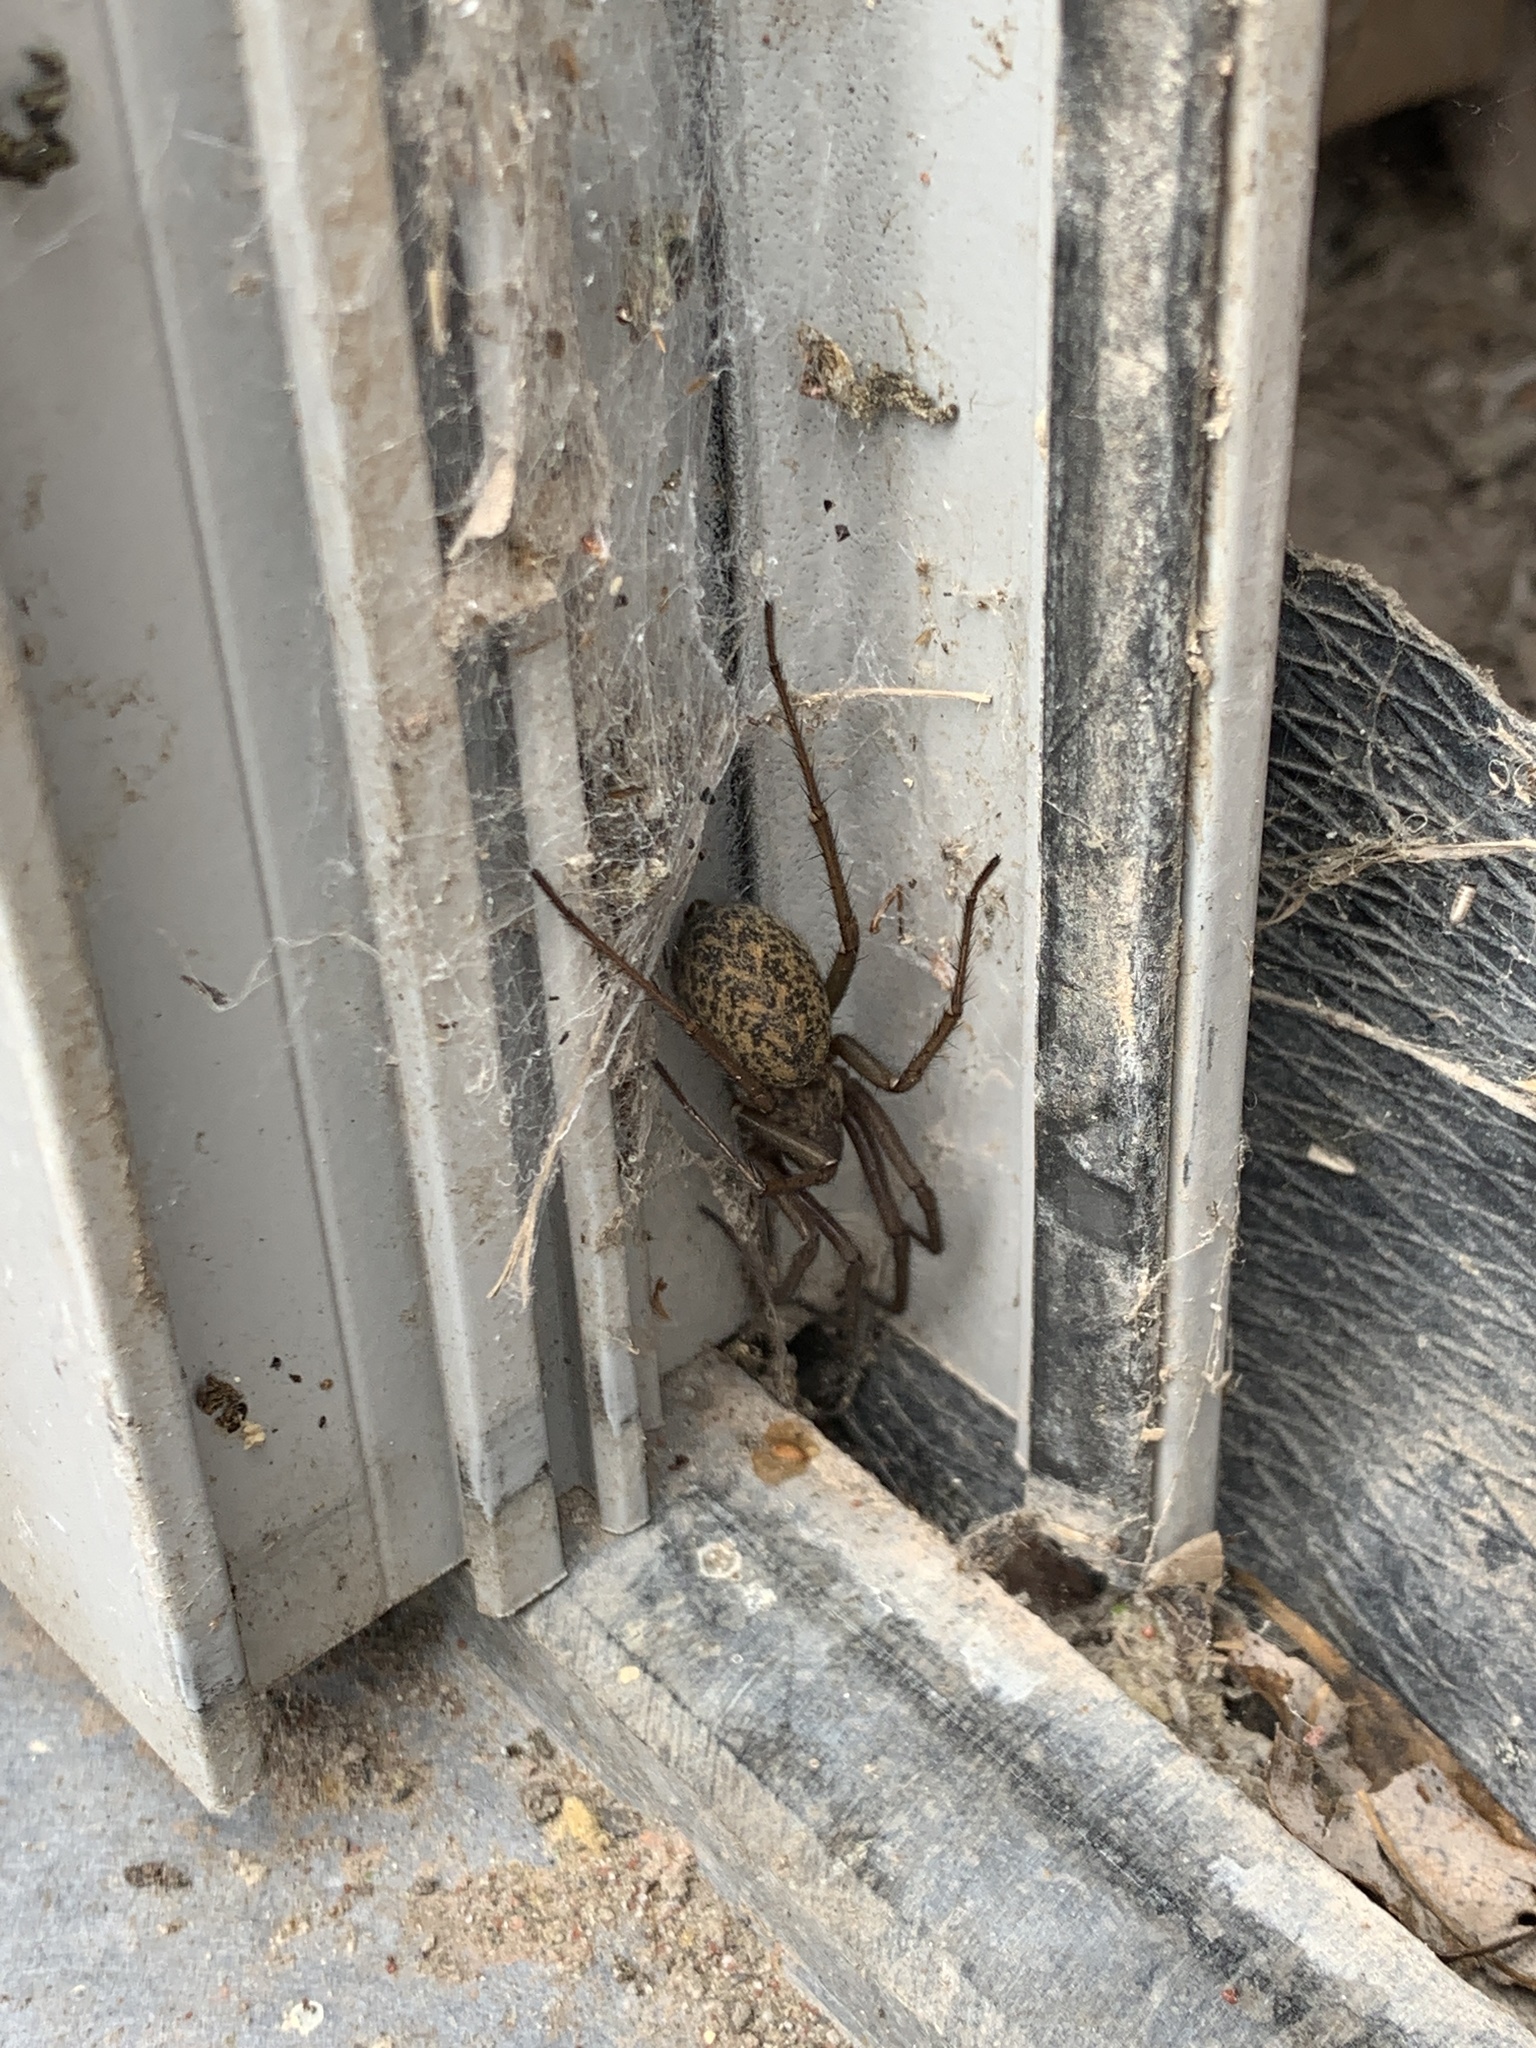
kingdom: Animalia
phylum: Arthropoda
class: Arachnida
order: Araneae
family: Agelenidae
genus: Eratigena
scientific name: Eratigena atrica
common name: Giant house spider
